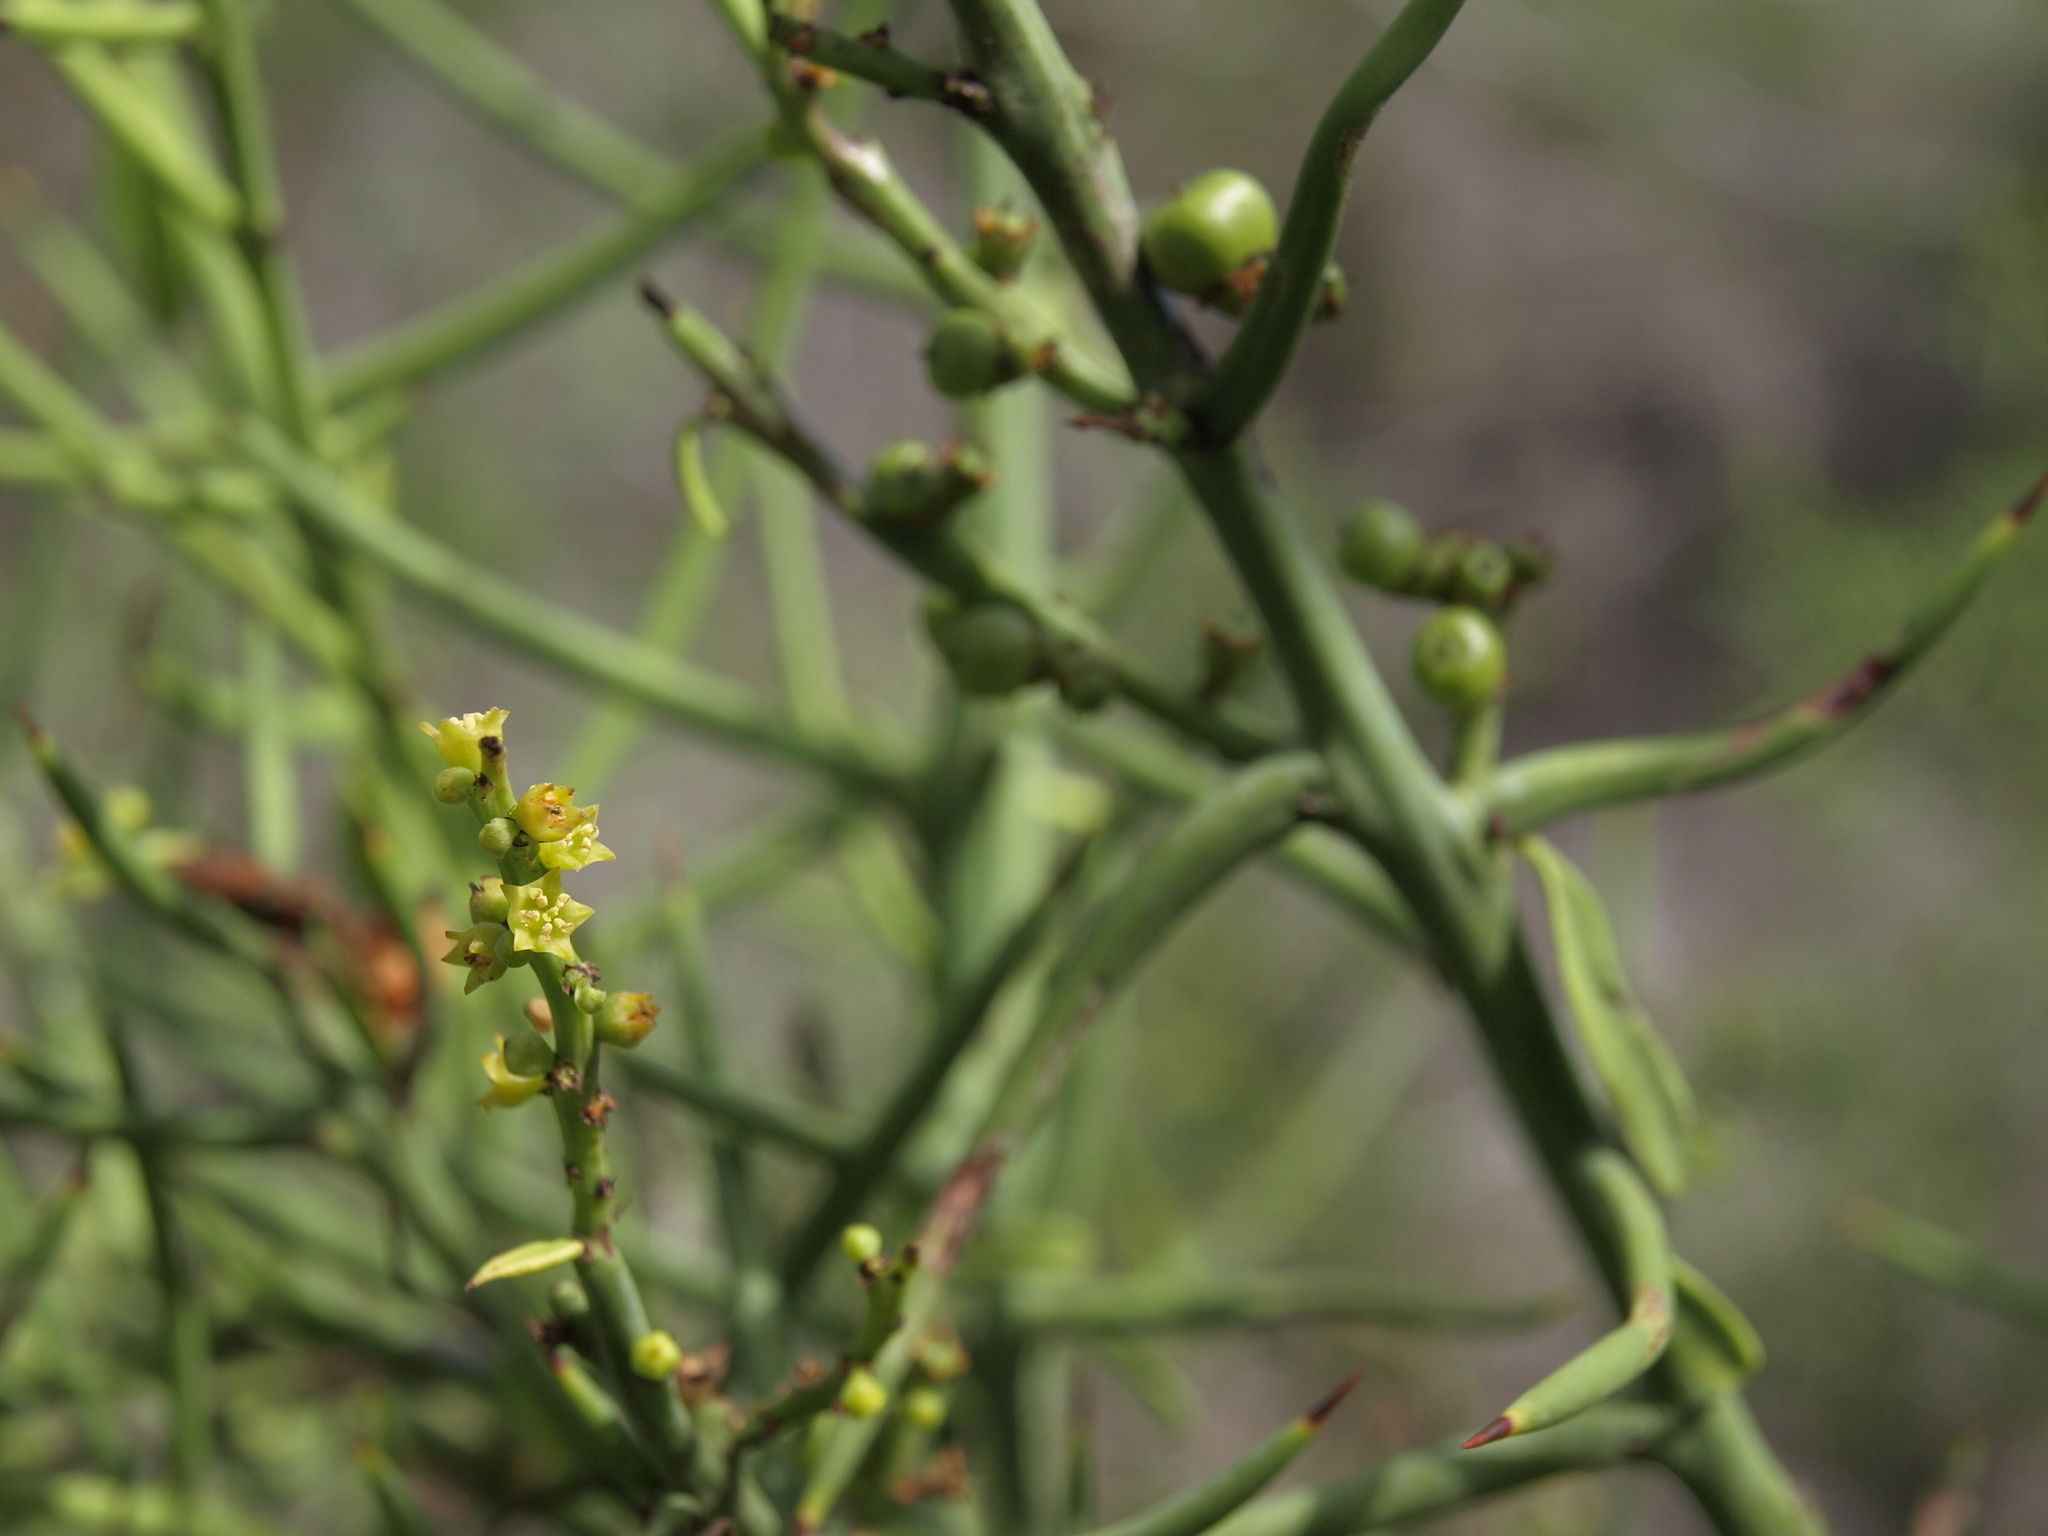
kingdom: Plantae
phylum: Tracheophyta
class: Magnoliopsida
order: Rosales
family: Rhamnaceae
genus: Scutia
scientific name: Scutia spicata
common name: Spiny bush
